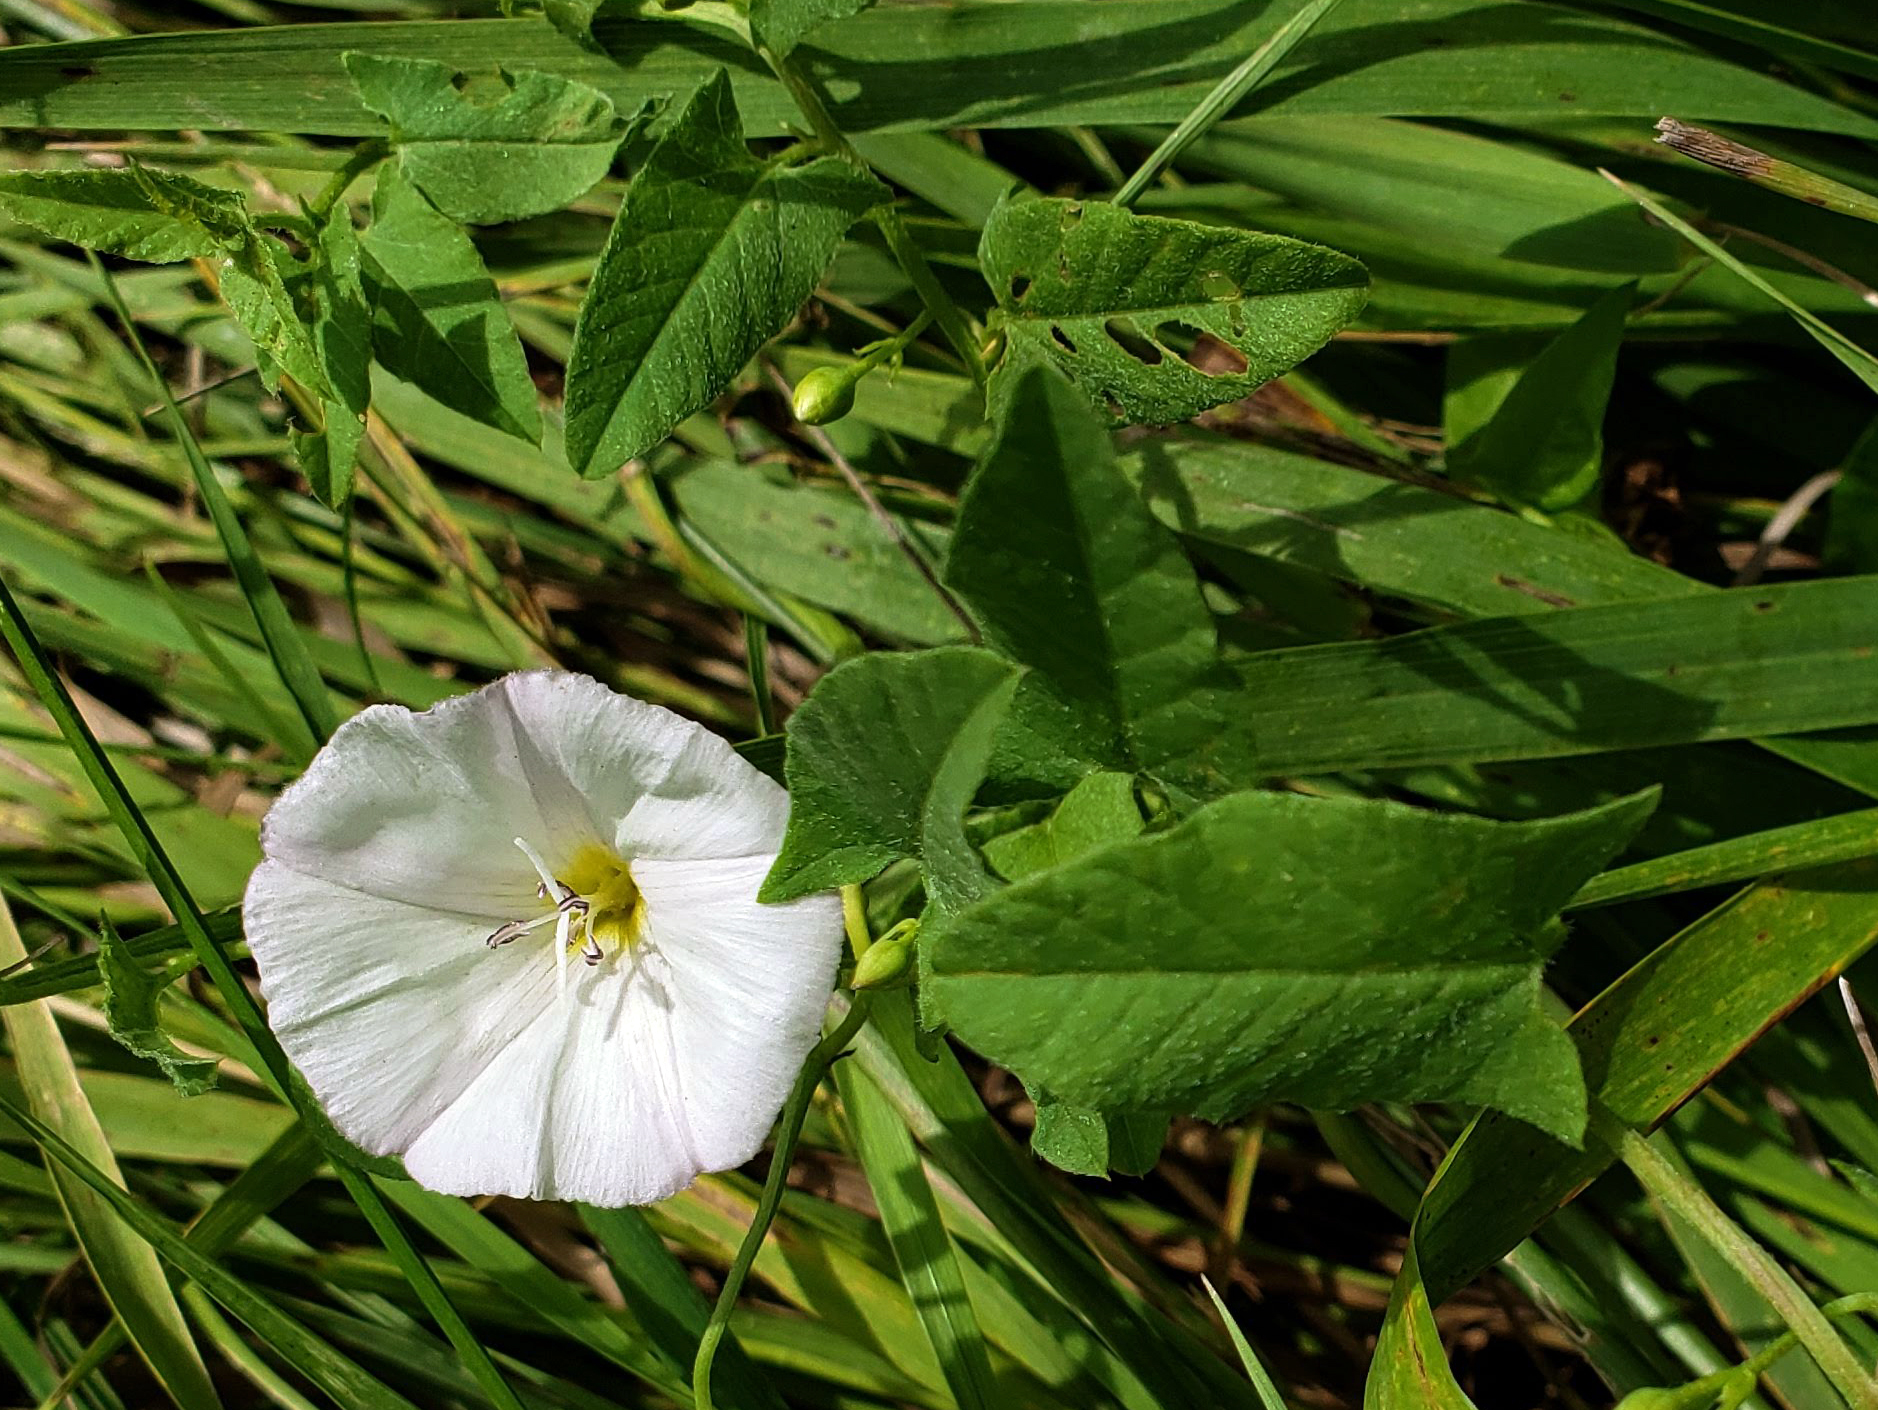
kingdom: Plantae
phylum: Tracheophyta
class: Magnoliopsida
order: Solanales
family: Convolvulaceae
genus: Convolvulus
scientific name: Convolvulus arvensis
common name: Field bindweed
